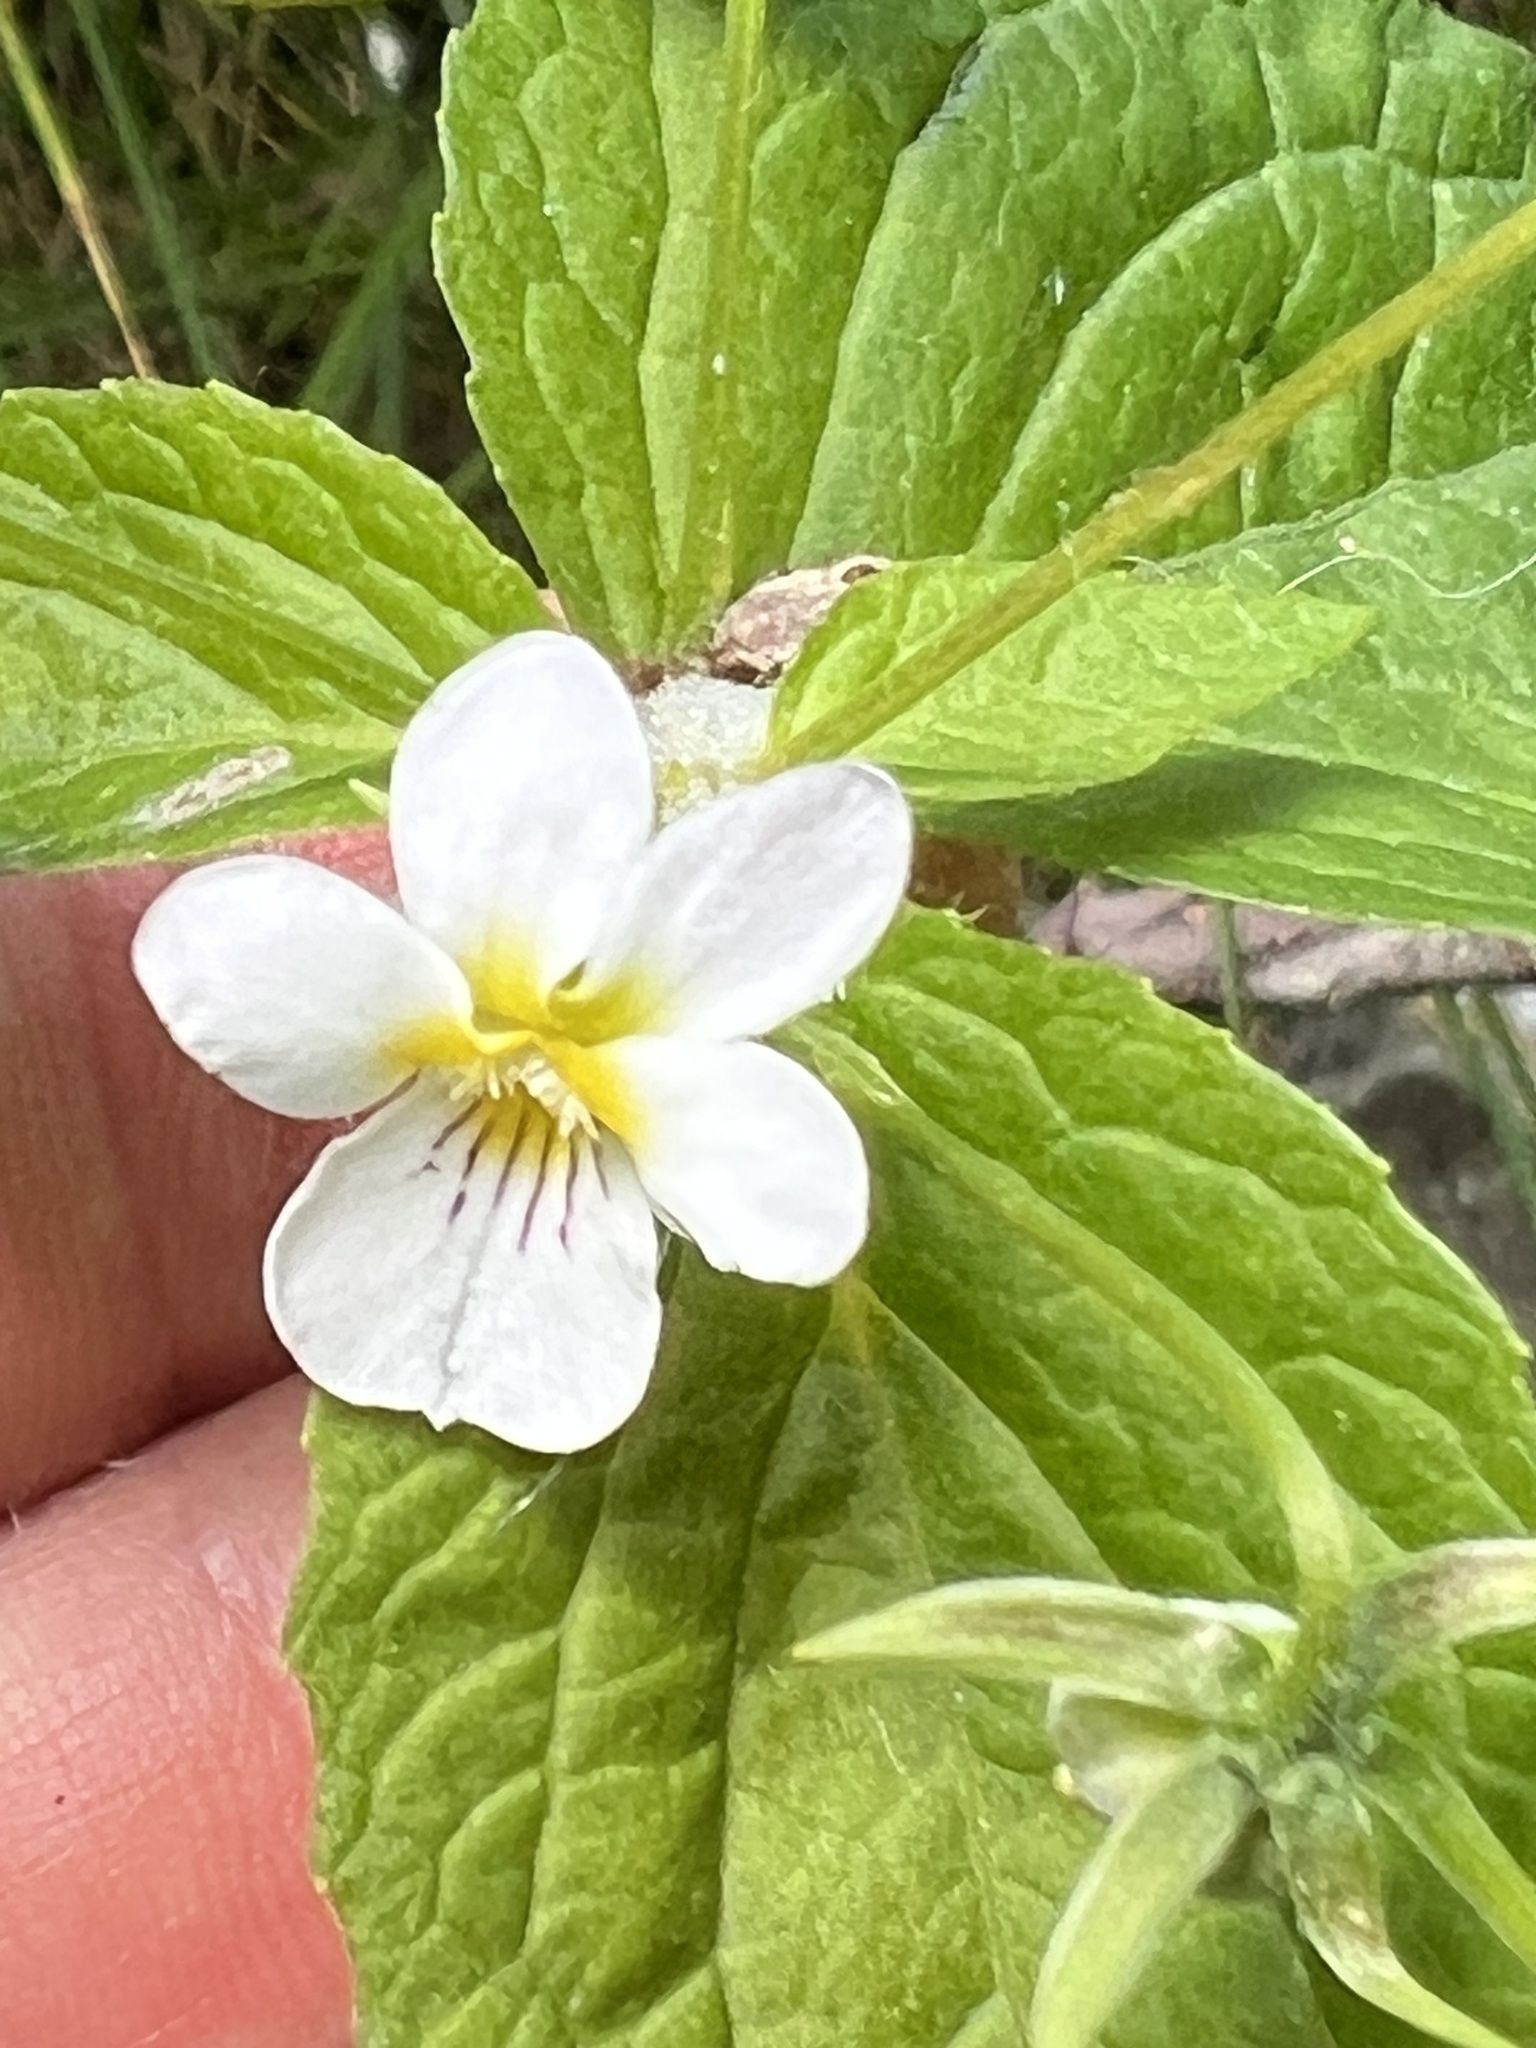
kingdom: Plantae
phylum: Tracheophyta
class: Magnoliopsida
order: Malpighiales
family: Violaceae
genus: Viola
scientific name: Viola canadensis
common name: Canada violet
